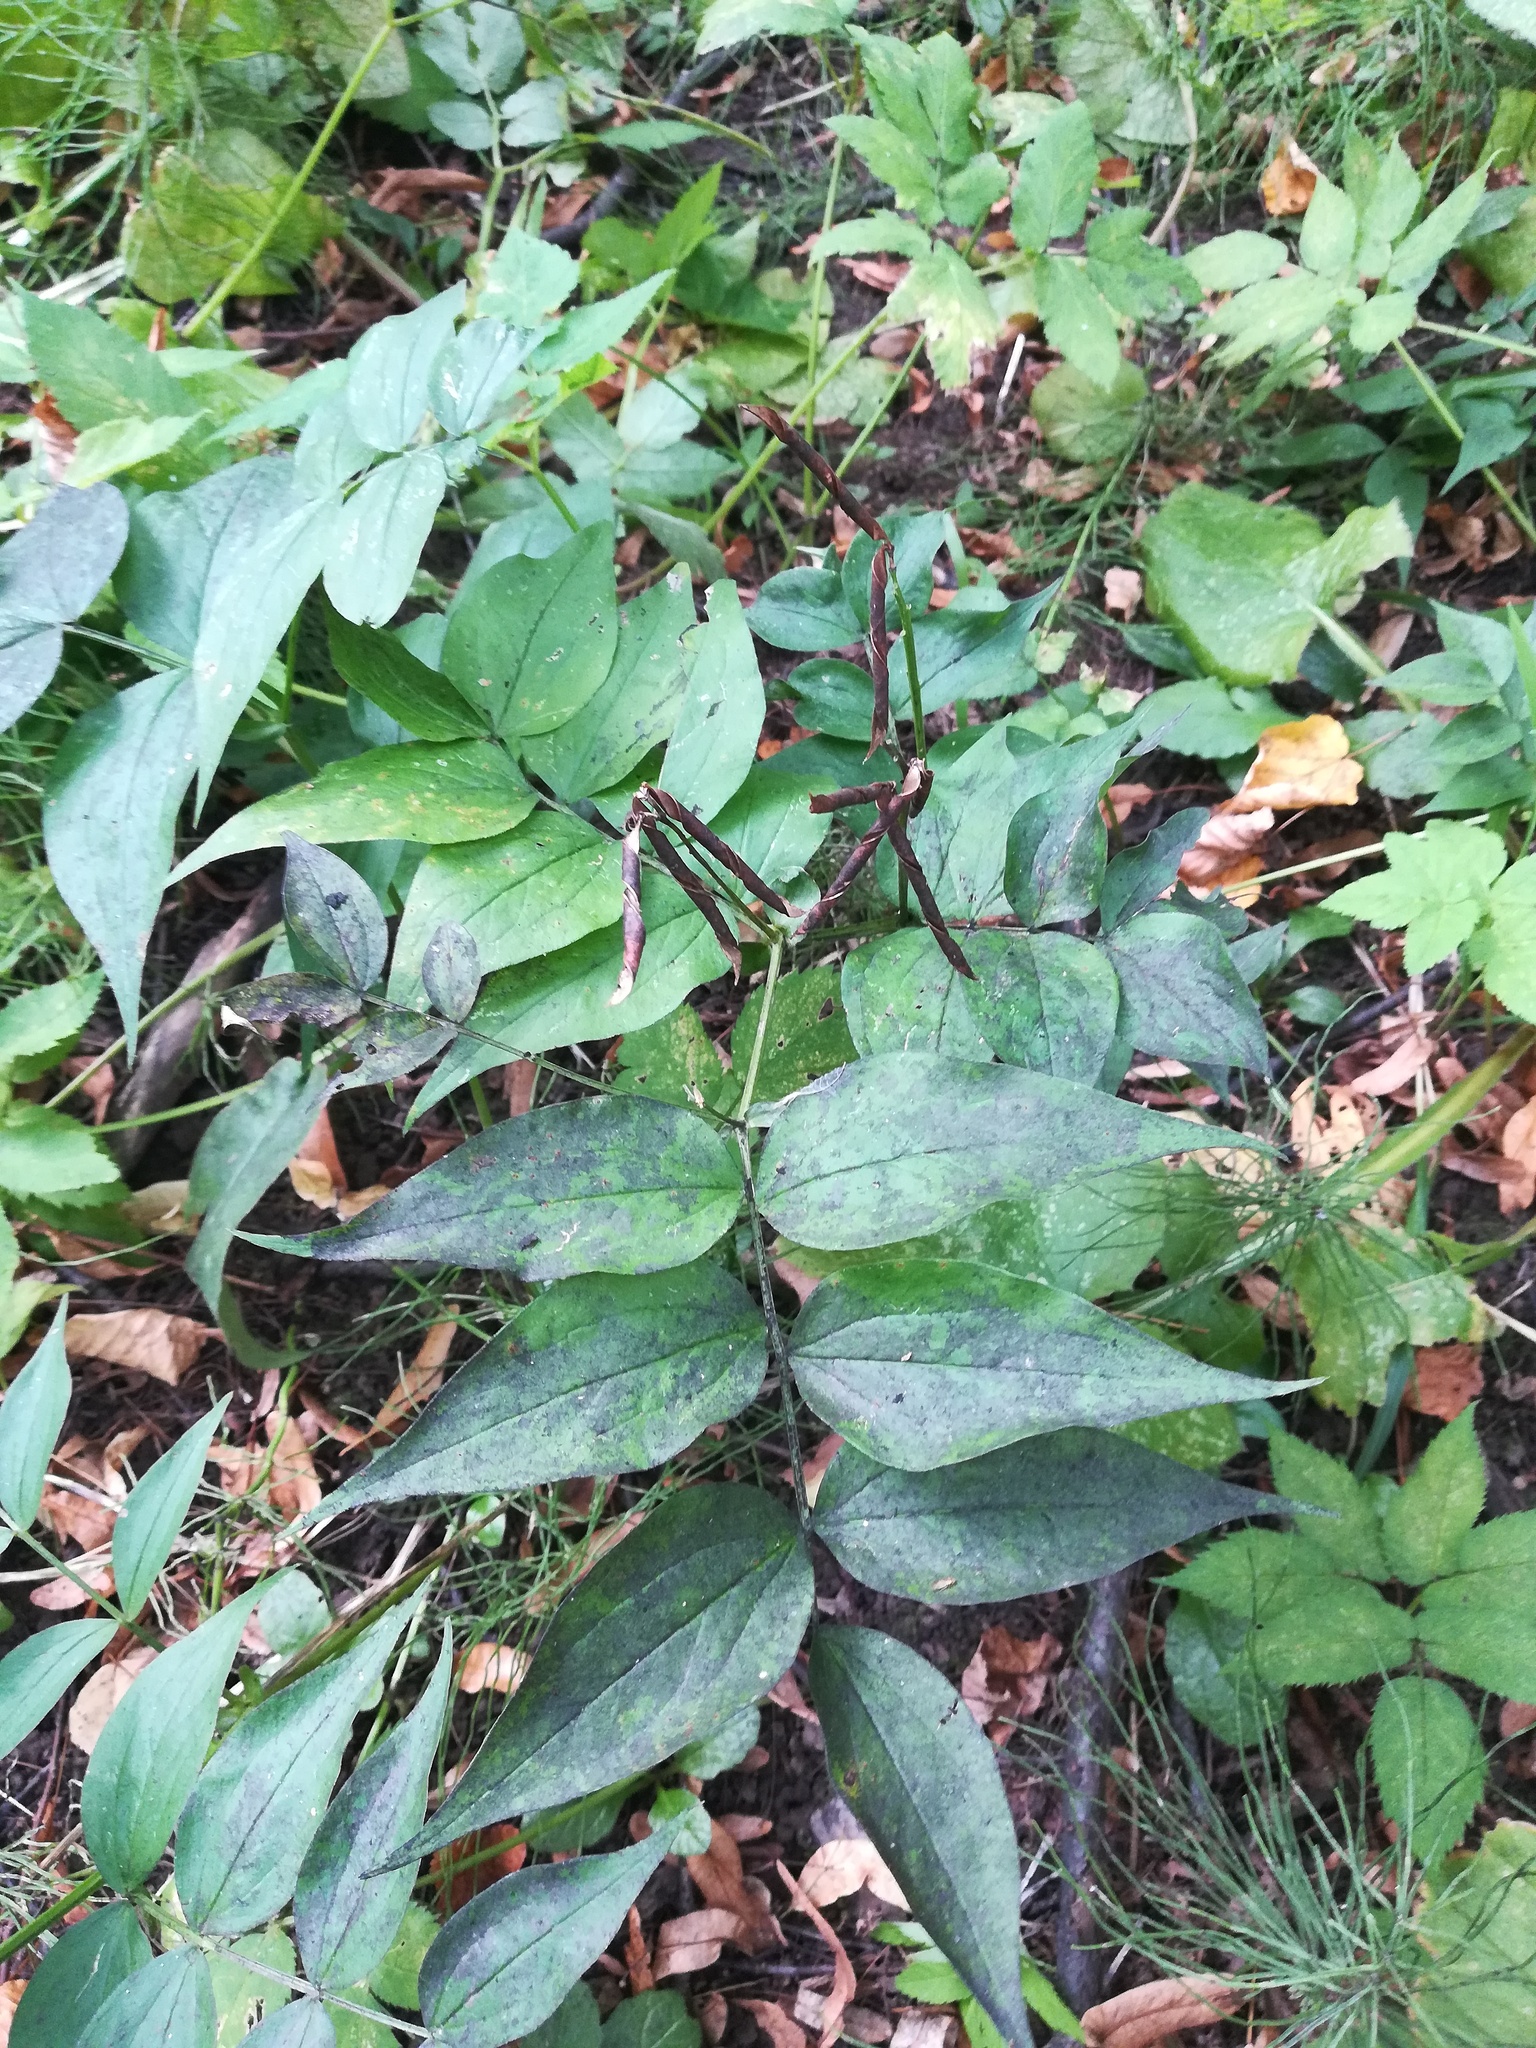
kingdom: Plantae
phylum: Tracheophyta
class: Magnoliopsida
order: Fabales
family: Fabaceae
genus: Lathyrus
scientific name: Lathyrus vernus
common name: Spring pea
